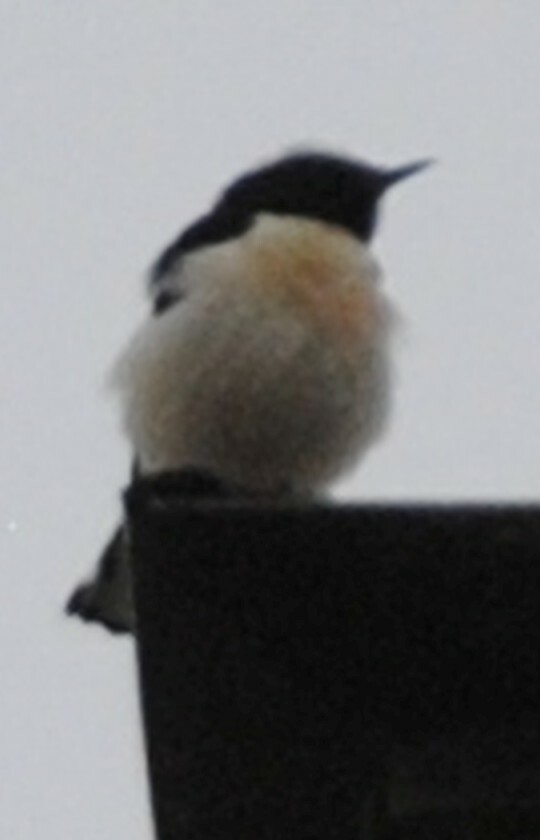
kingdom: Animalia
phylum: Chordata
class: Aves
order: Passeriformes
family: Muscicapidae
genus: Oenanthe
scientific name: Oenanthe finschii
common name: Finsch's wheatear
